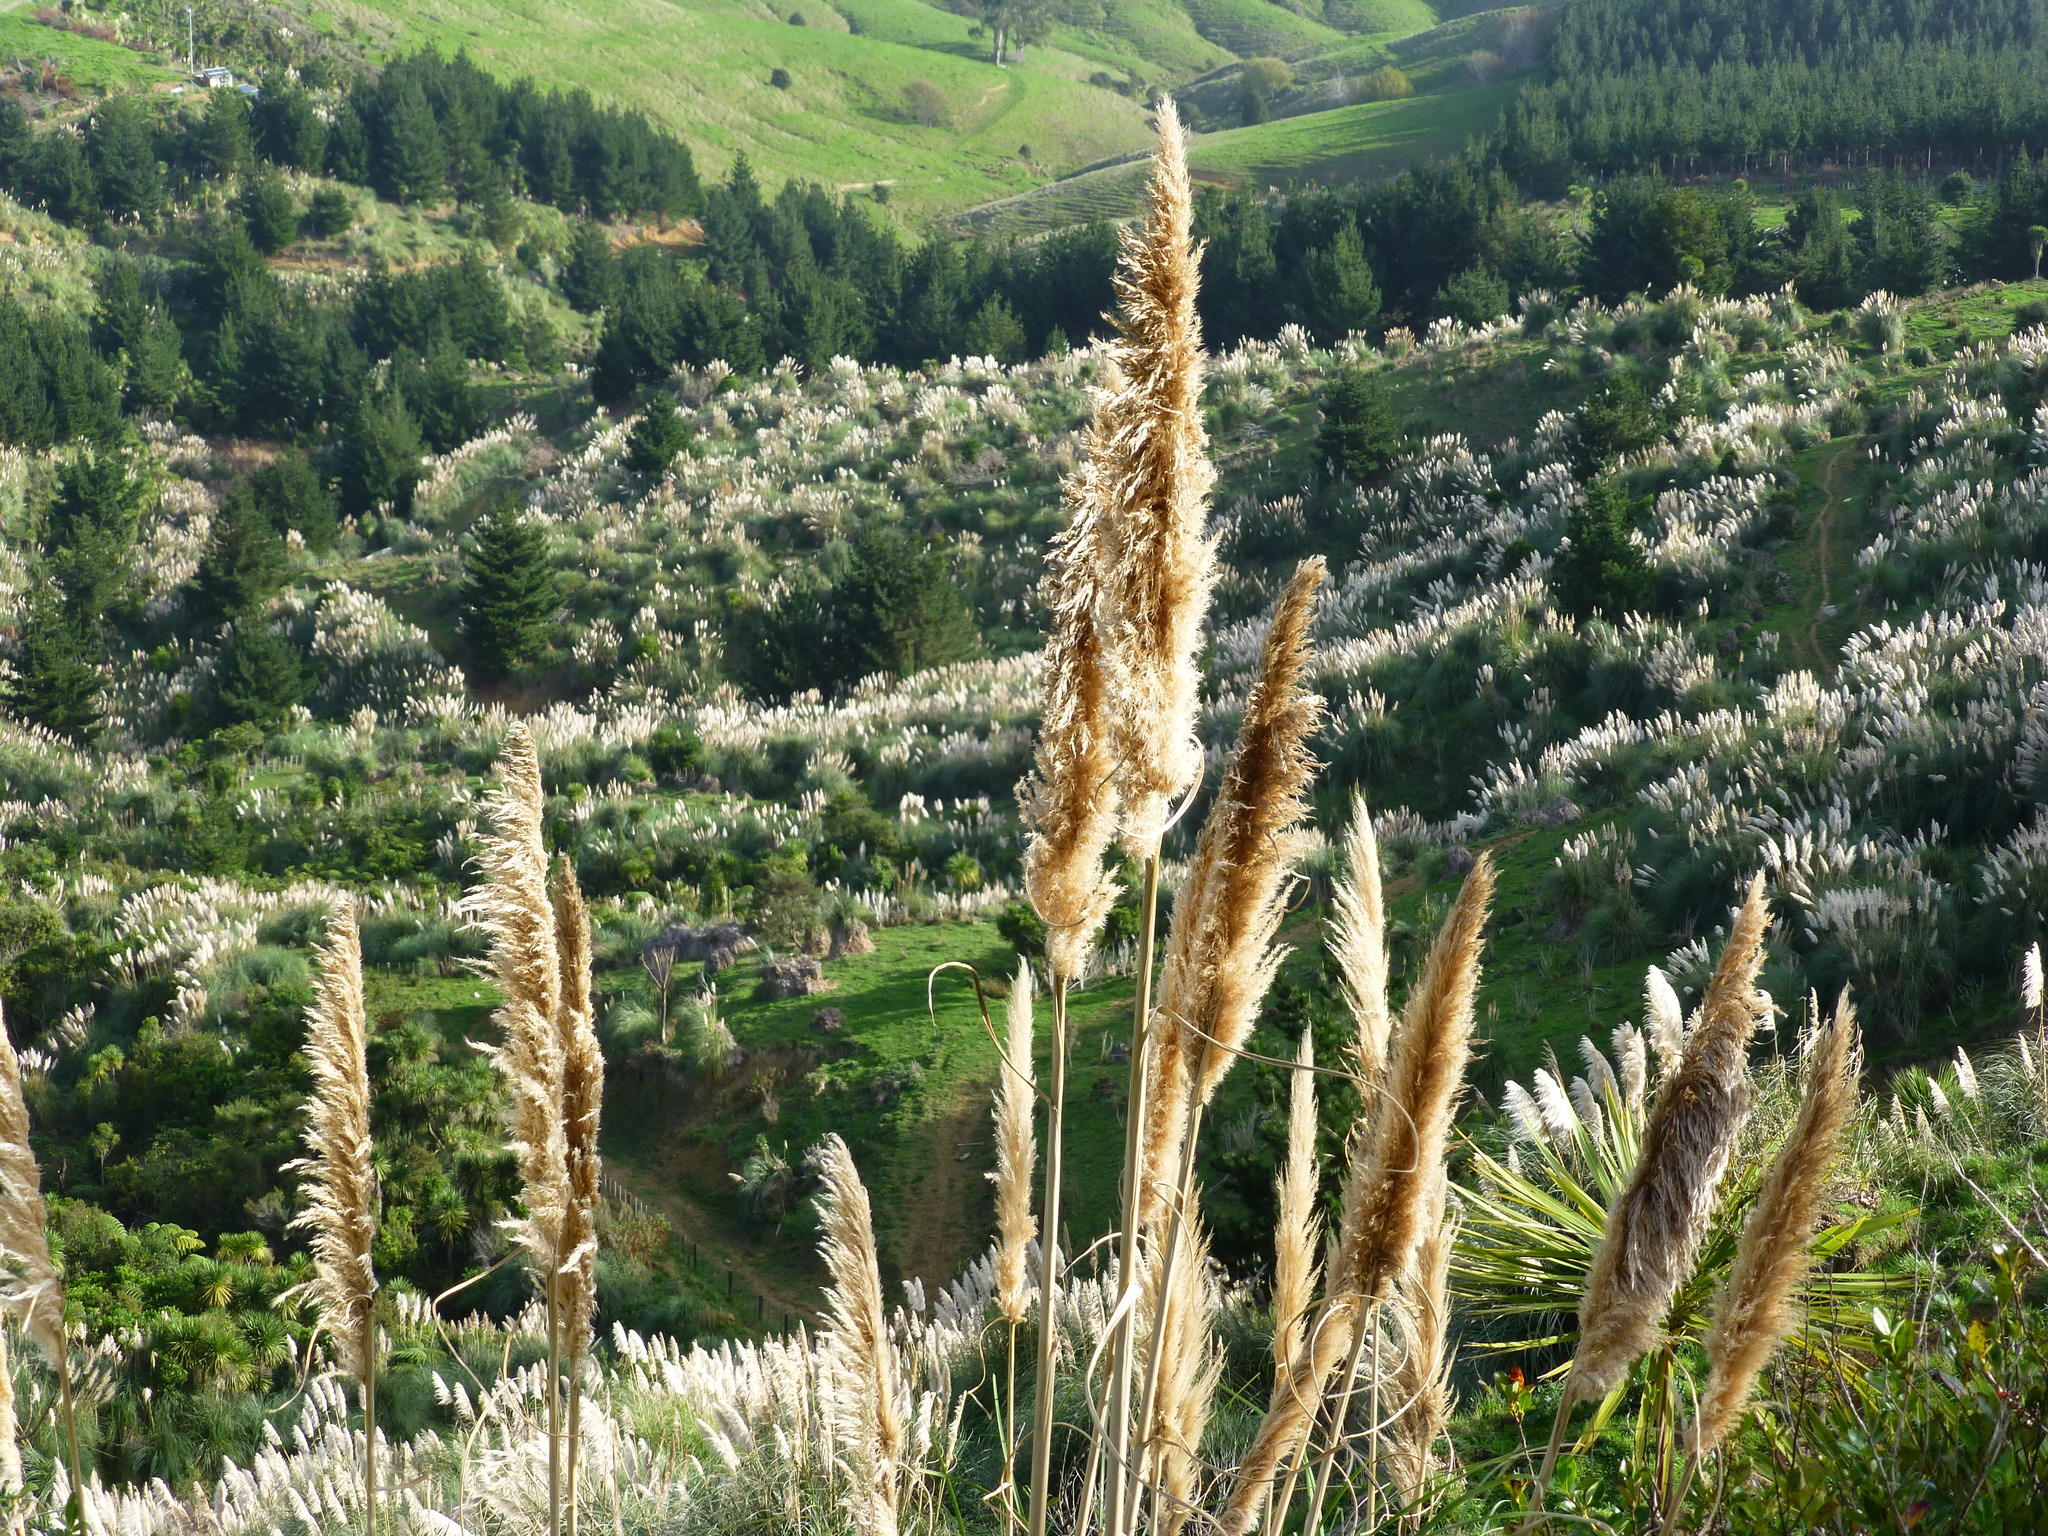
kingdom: Plantae
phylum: Tracheophyta
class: Liliopsida
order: Poales
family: Poaceae
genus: Cortaderia
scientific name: Cortaderia selloana
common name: Uruguayan pampas grass
